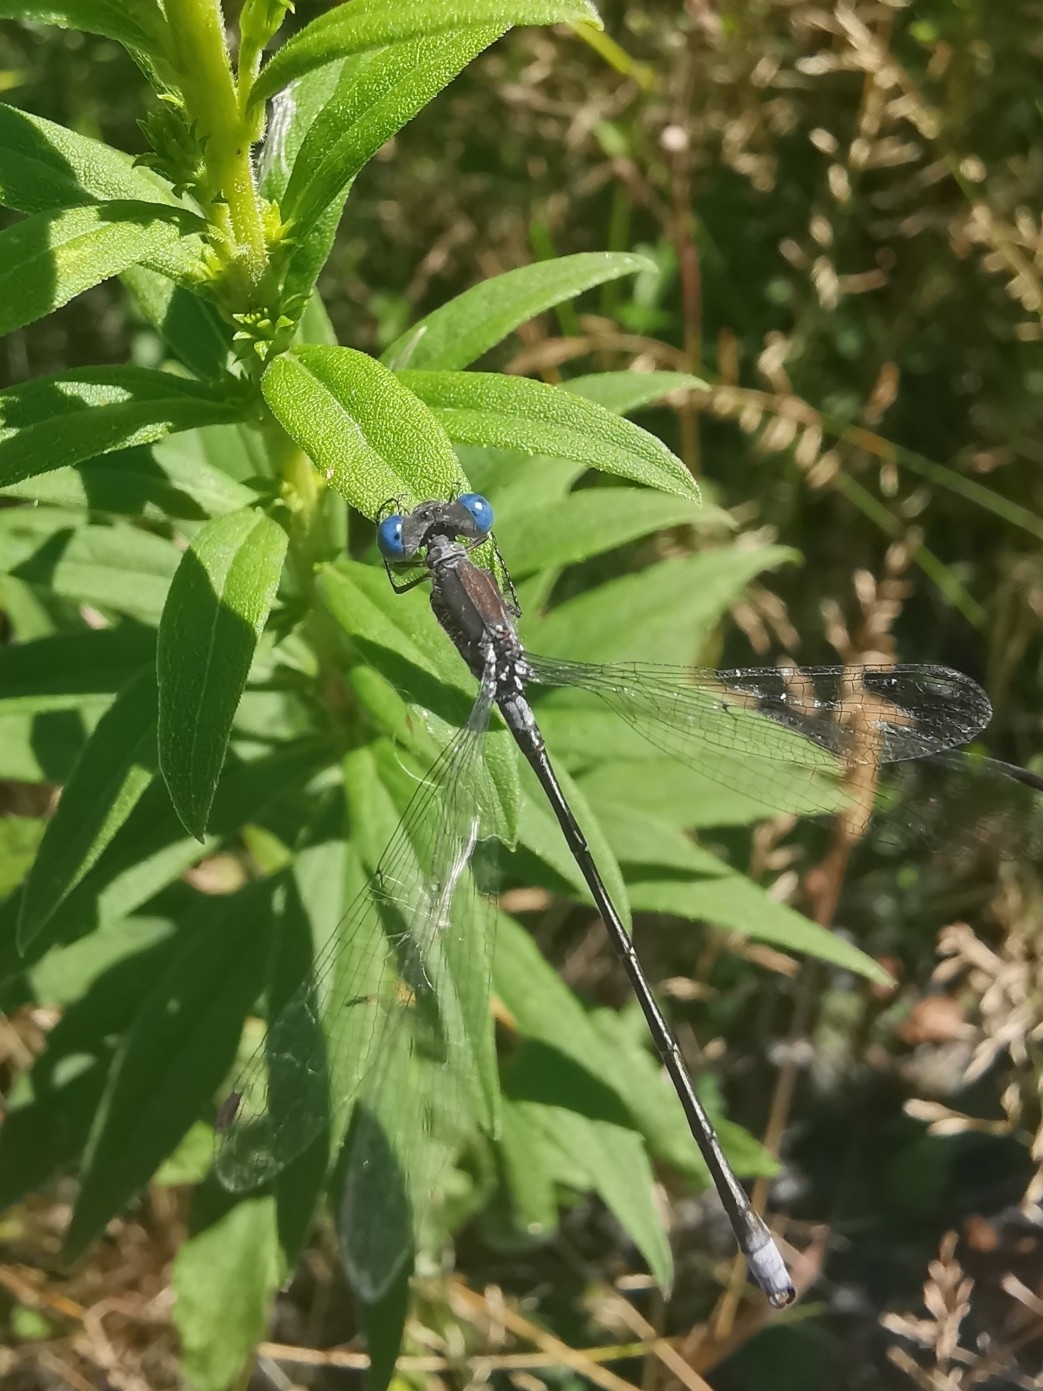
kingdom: Animalia
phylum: Arthropoda
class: Insecta
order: Odonata
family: Lestidae
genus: Lestes
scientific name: Lestes congener
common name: Spotted spreadwing
